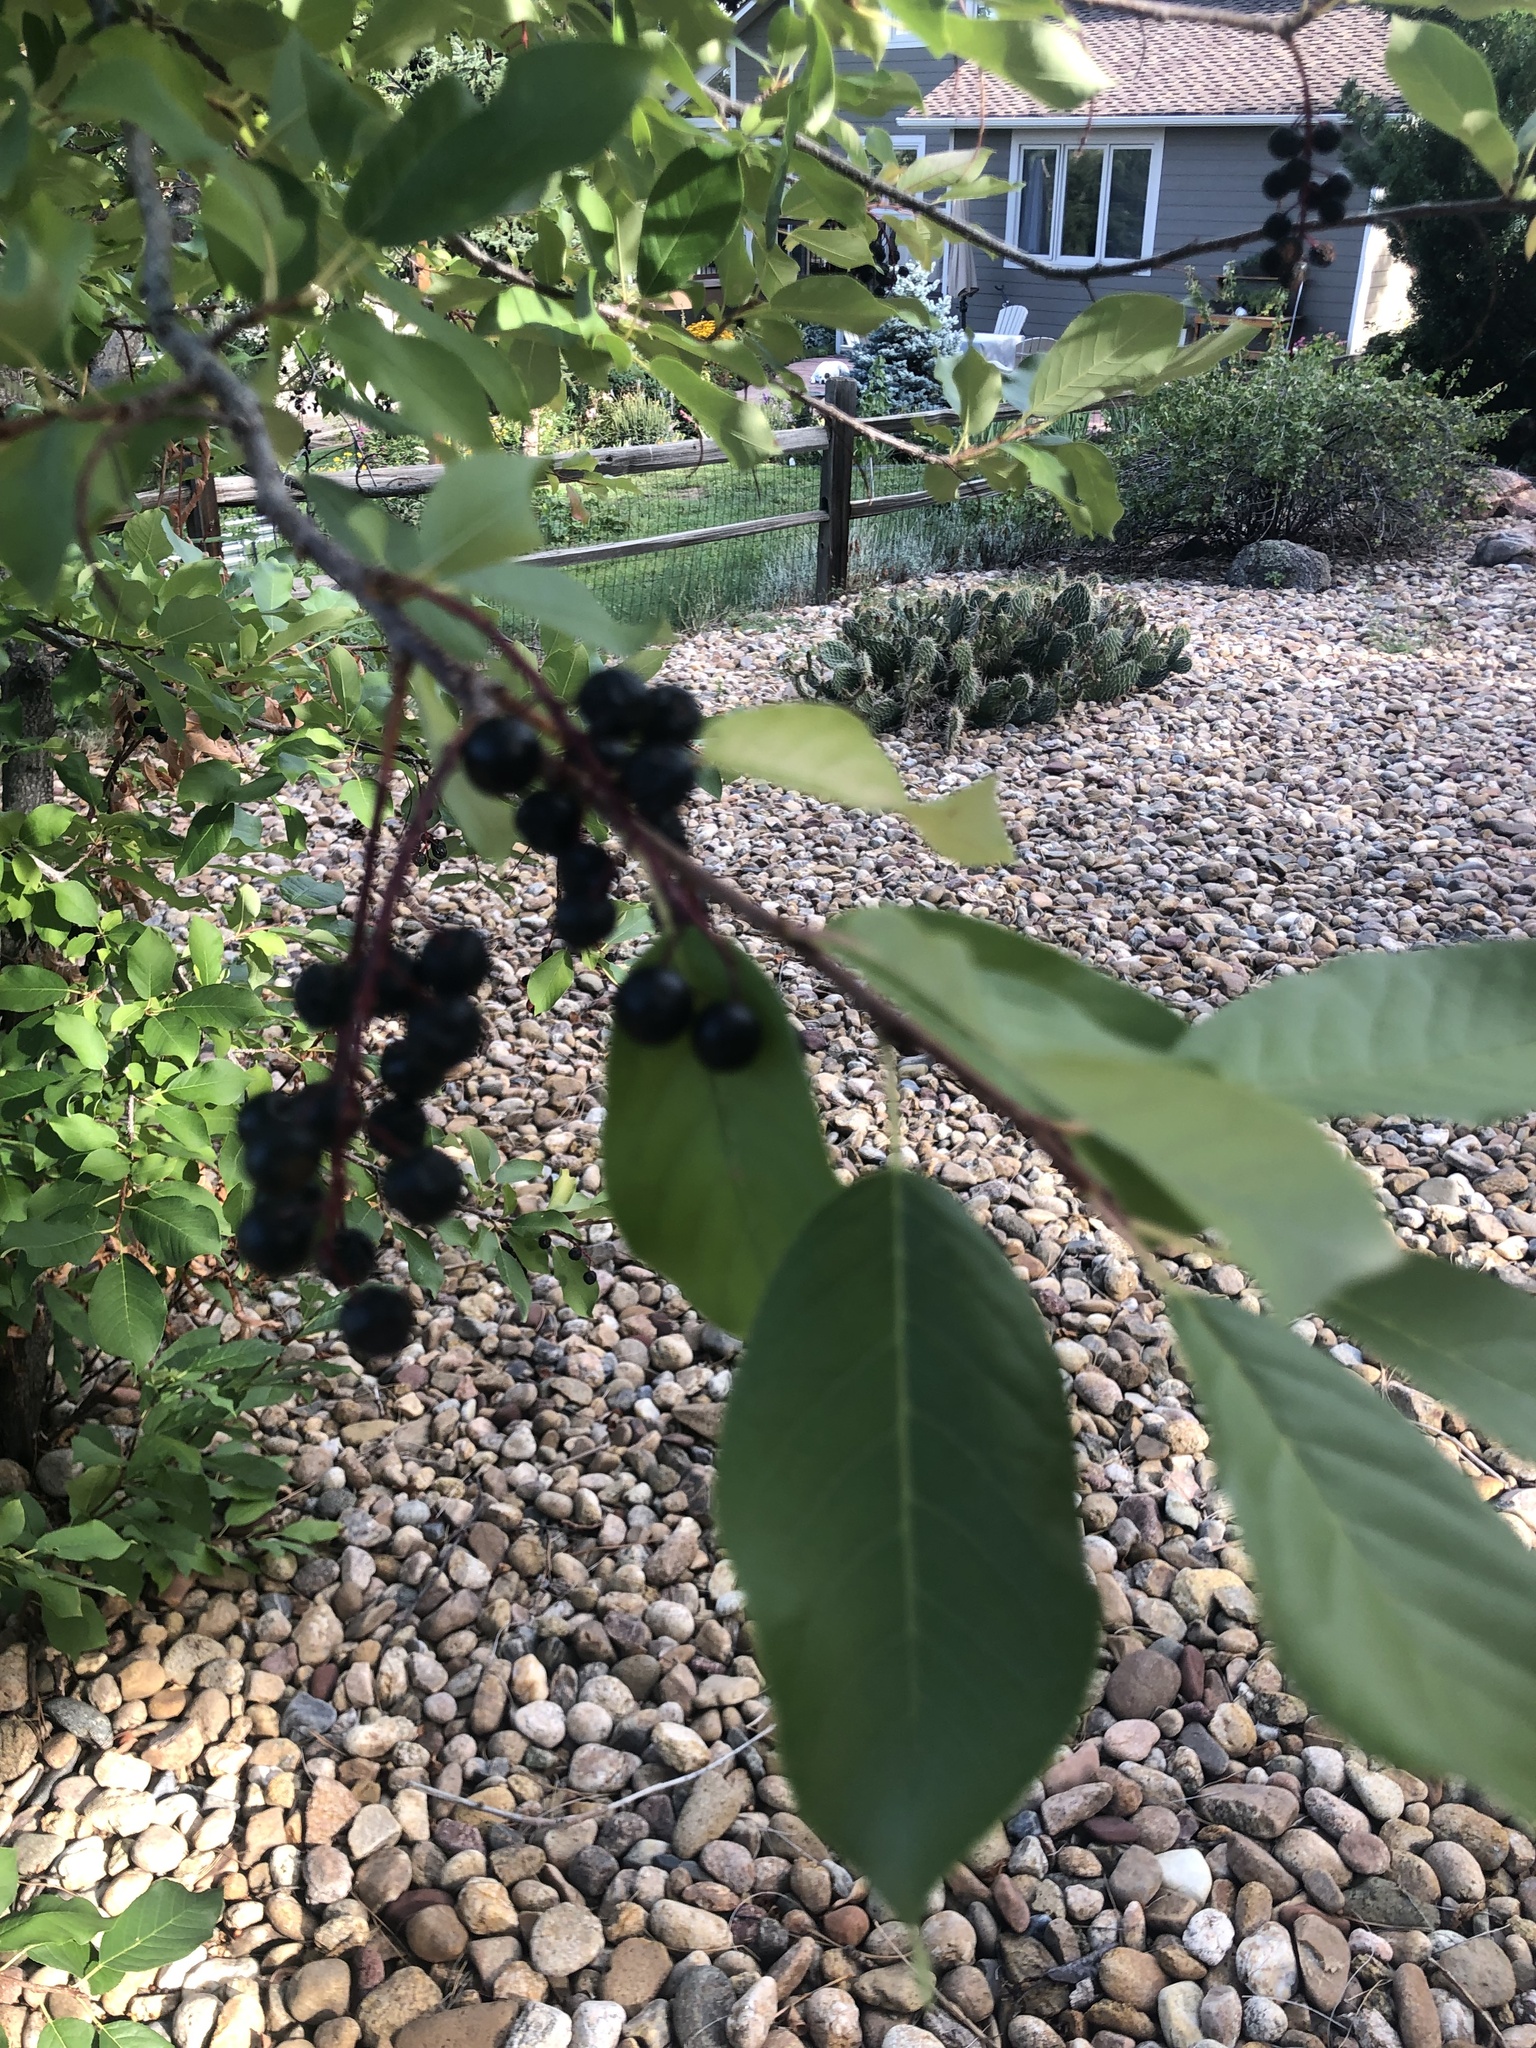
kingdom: Plantae
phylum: Tracheophyta
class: Magnoliopsida
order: Rosales
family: Rosaceae
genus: Prunus
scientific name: Prunus virginiana
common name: Chokecherry
